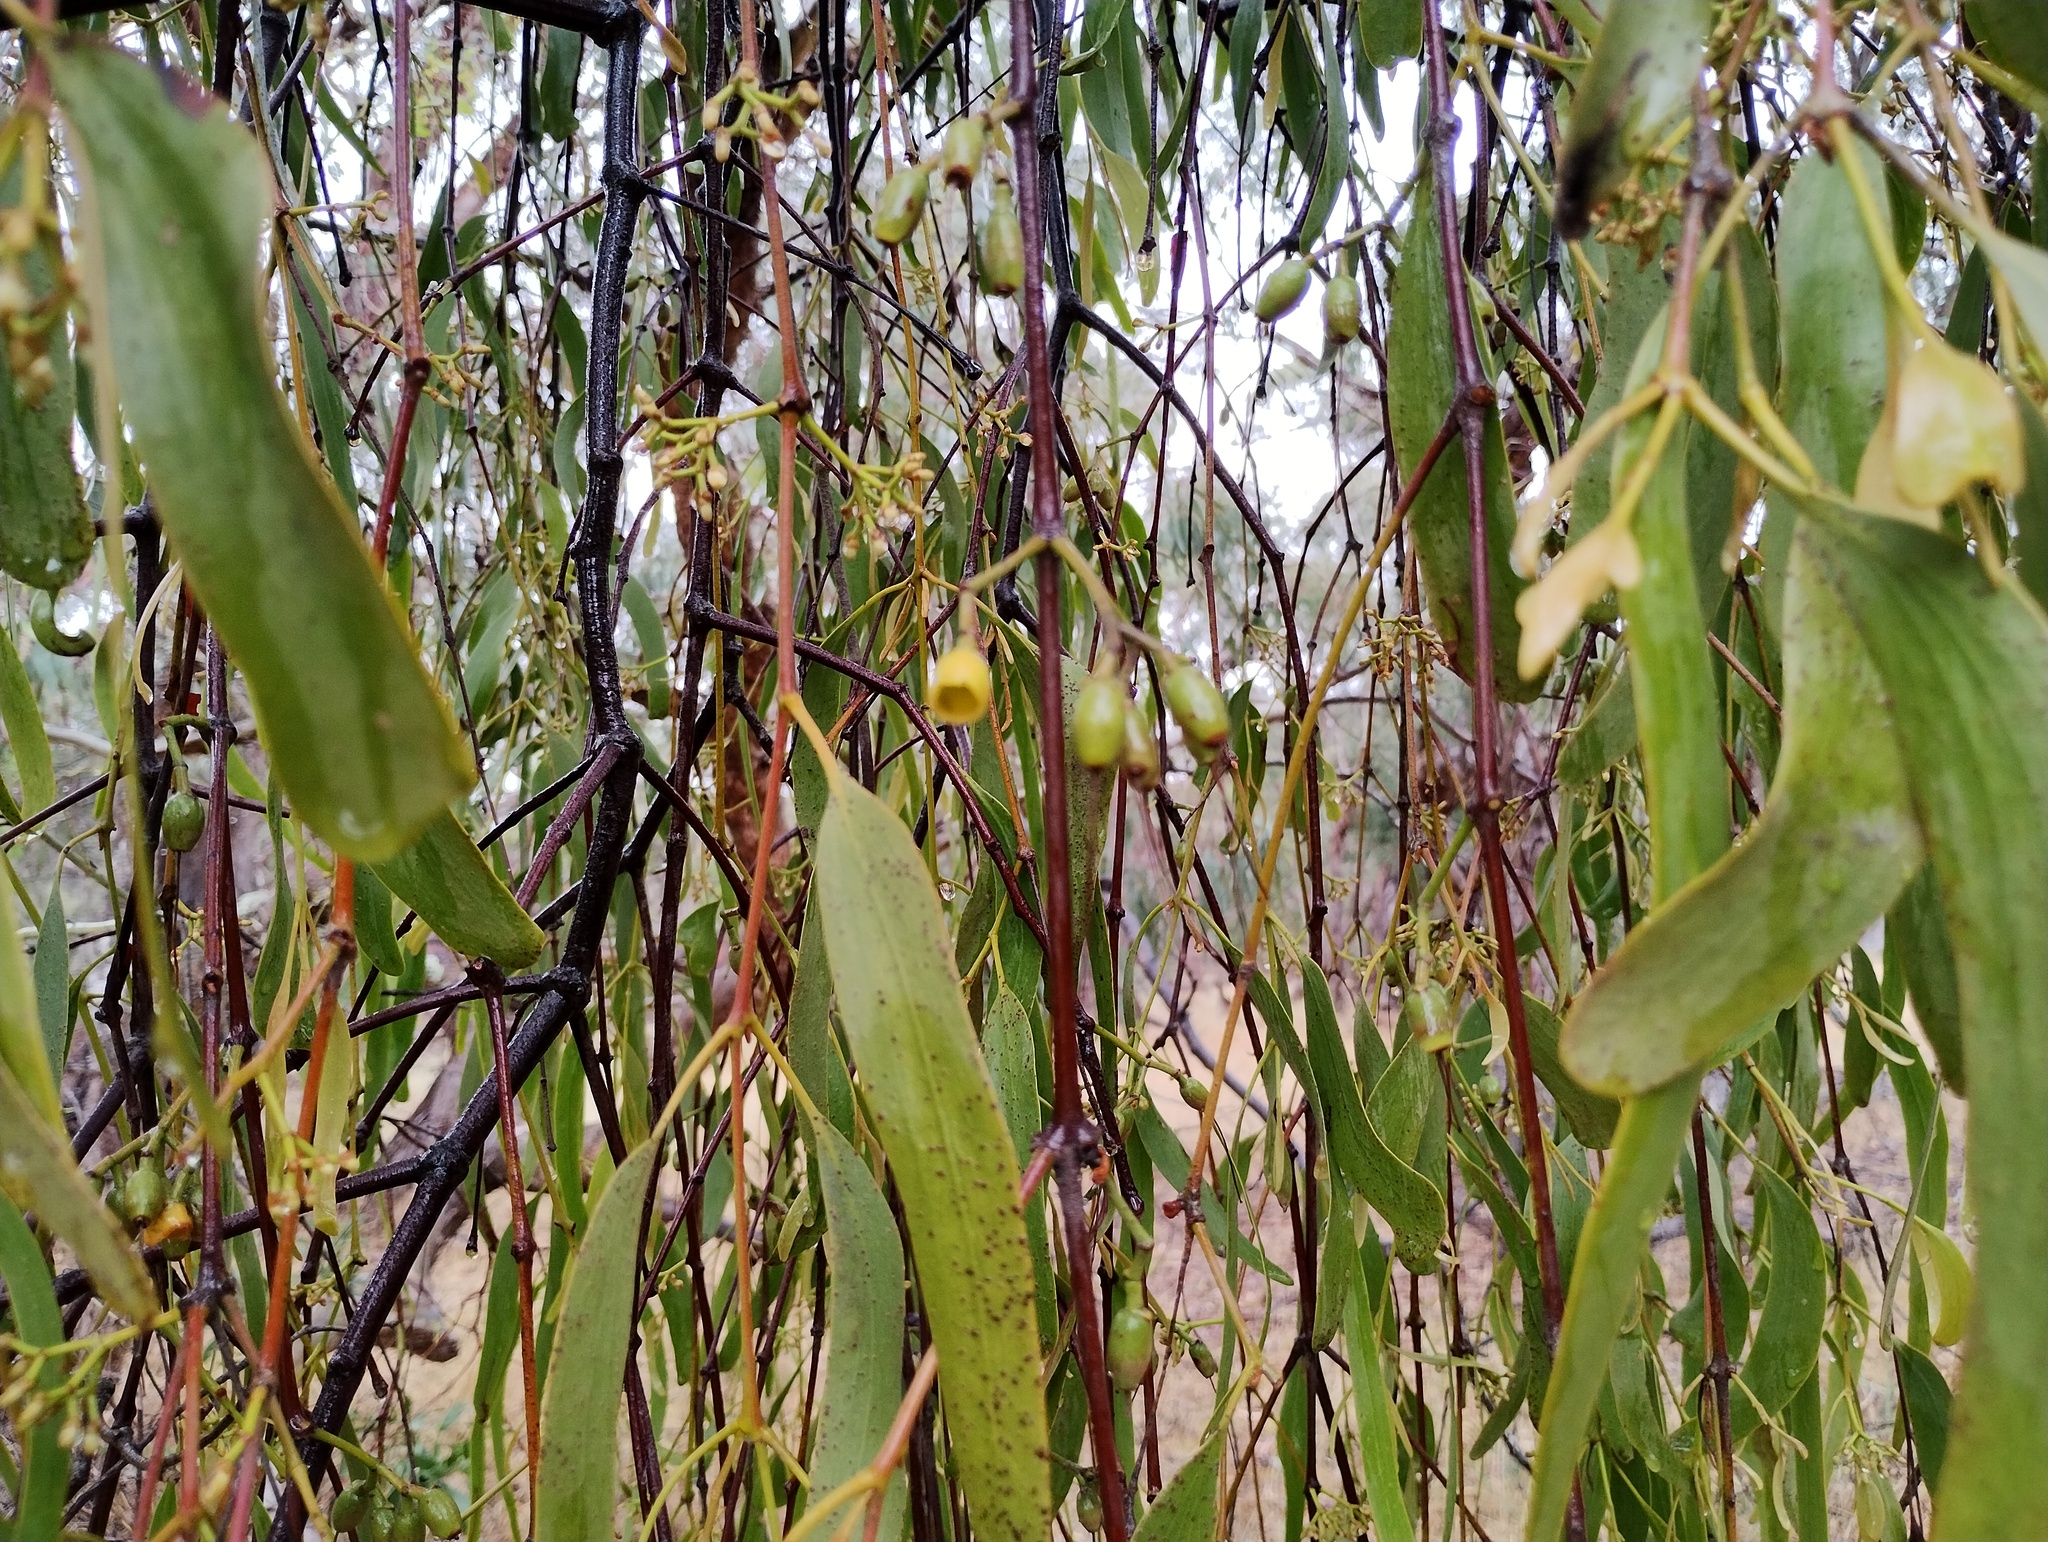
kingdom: Plantae
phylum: Tracheophyta
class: Magnoliopsida
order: Santalales
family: Loranthaceae
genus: Amyema
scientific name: Amyema miquelii
